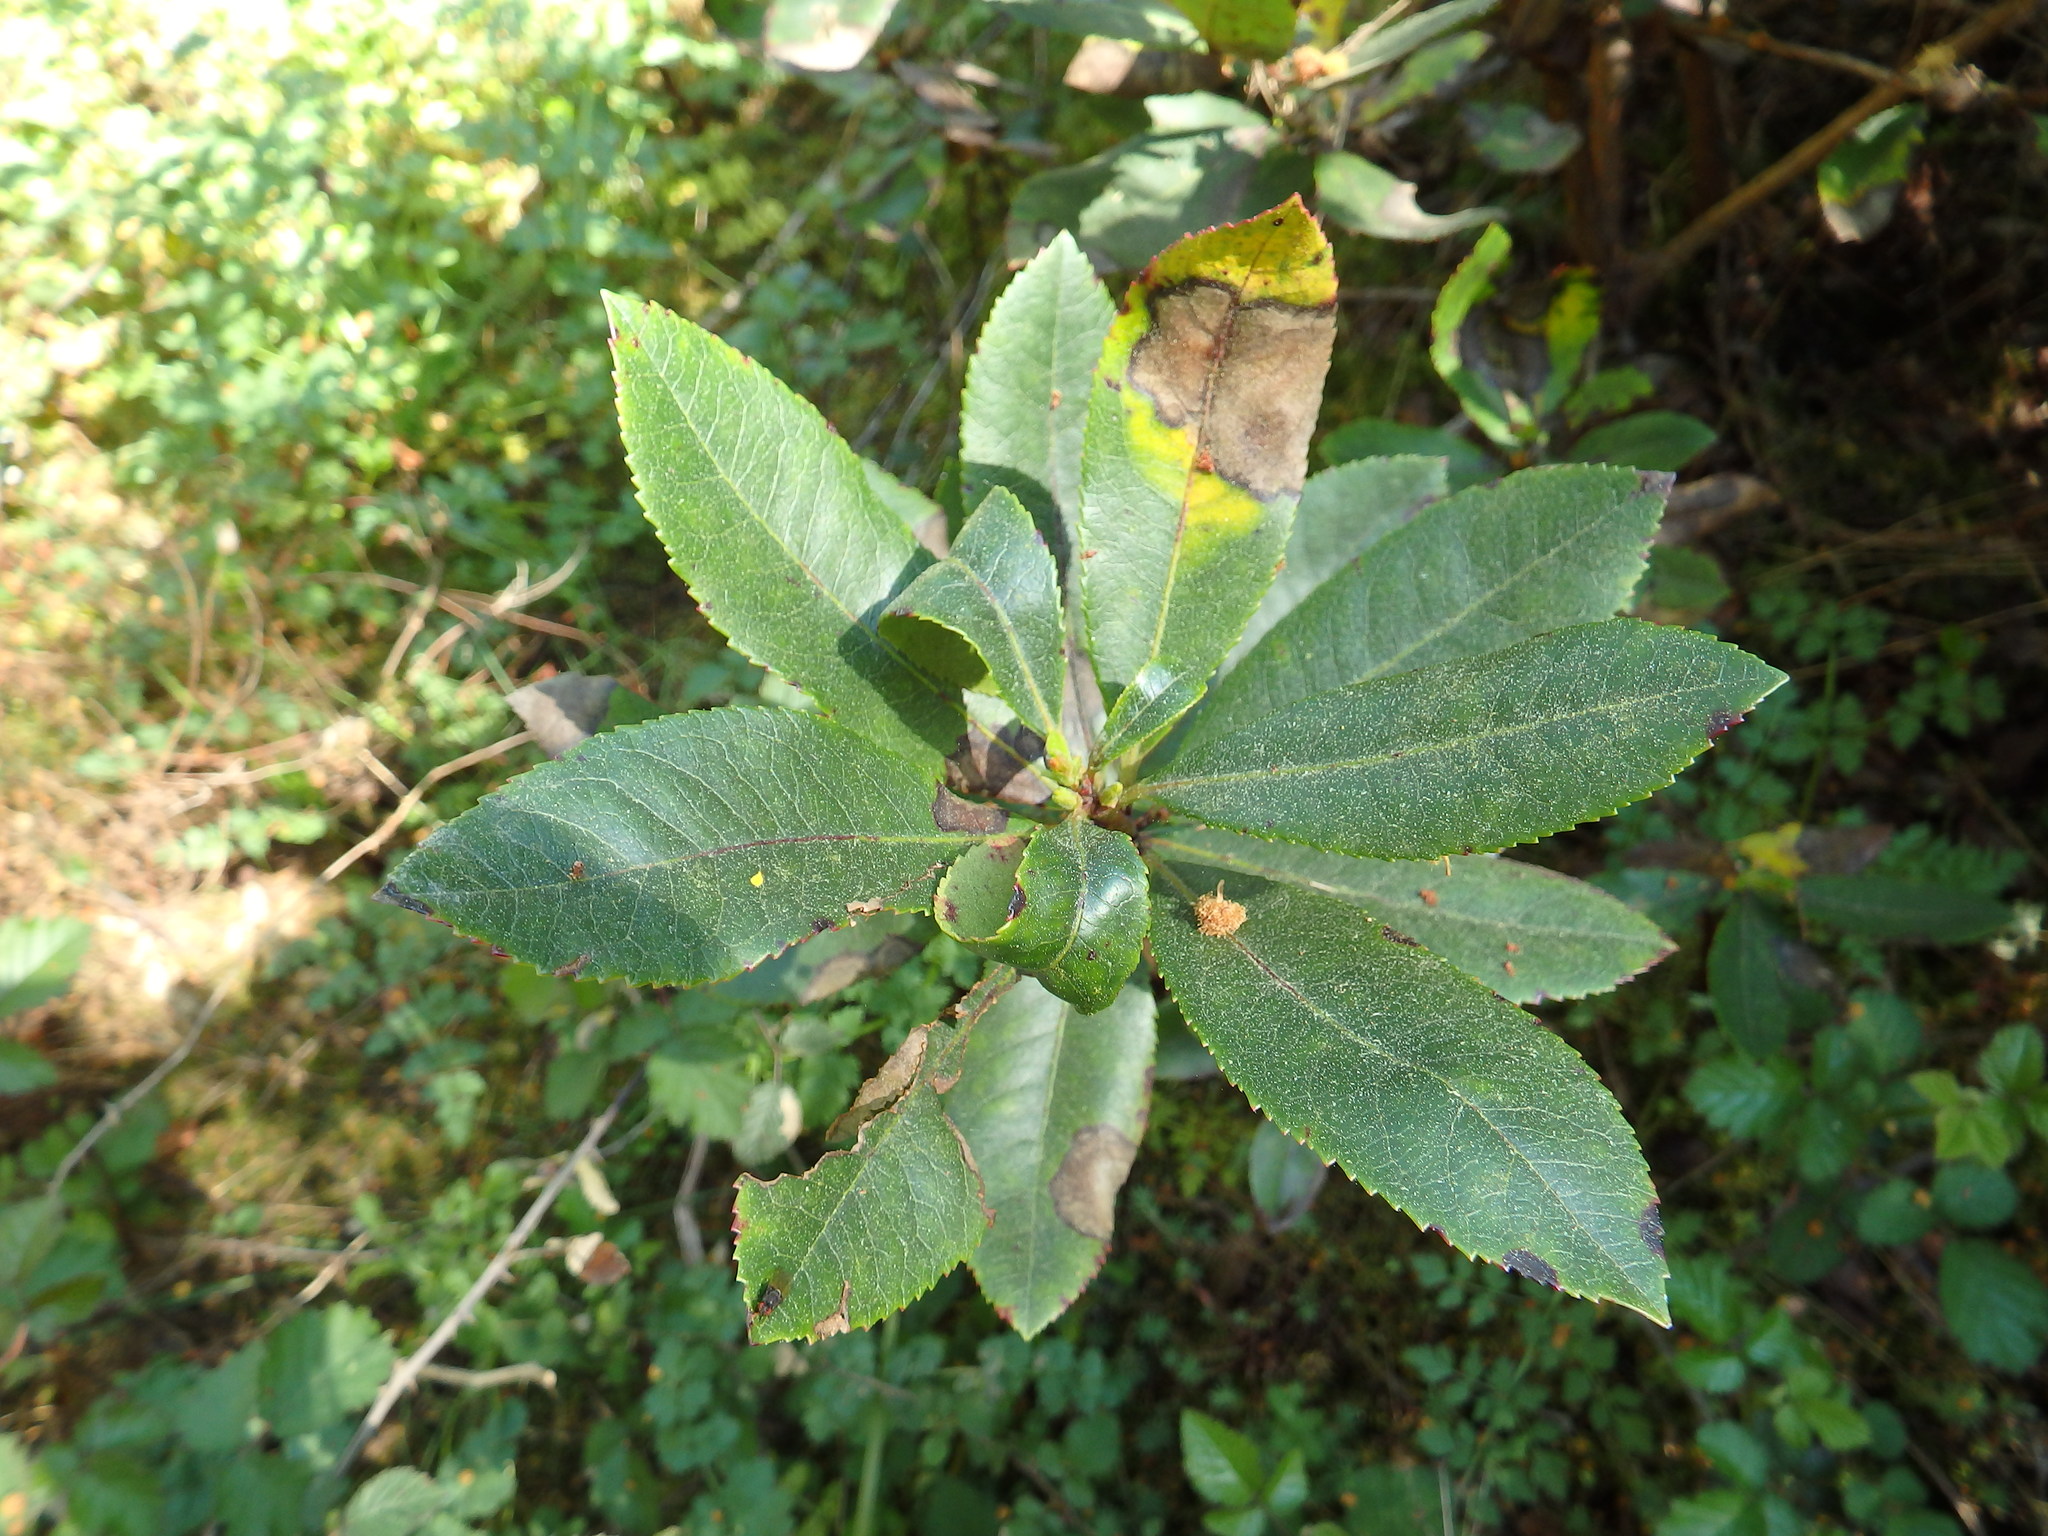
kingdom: Plantae
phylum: Tracheophyta
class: Magnoliopsida
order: Ericales
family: Ericaceae
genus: Arbutus
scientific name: Arbutus unedo
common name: Strawberry-tree
